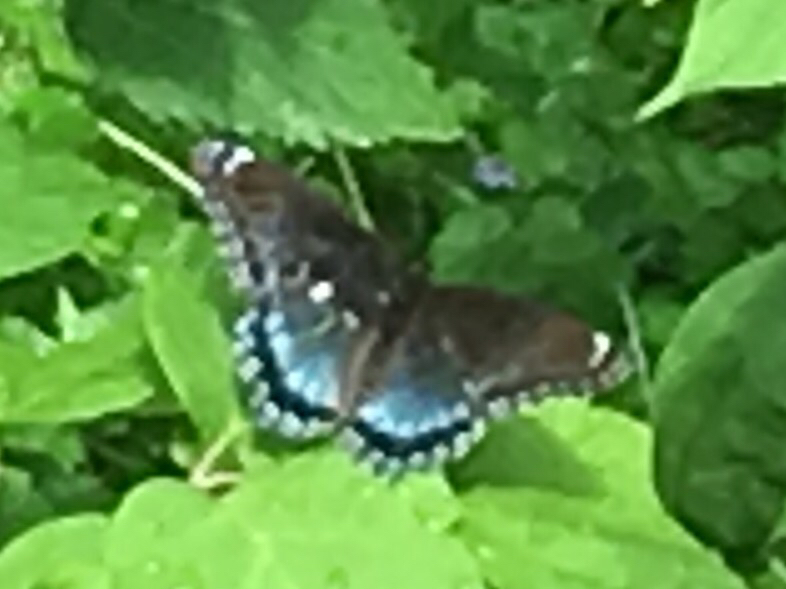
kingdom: Animalia
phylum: Arthropoda
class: Insecta
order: Lepidoptera
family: Nymphalidae
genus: Limenitis
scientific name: Limenitis astyanax
